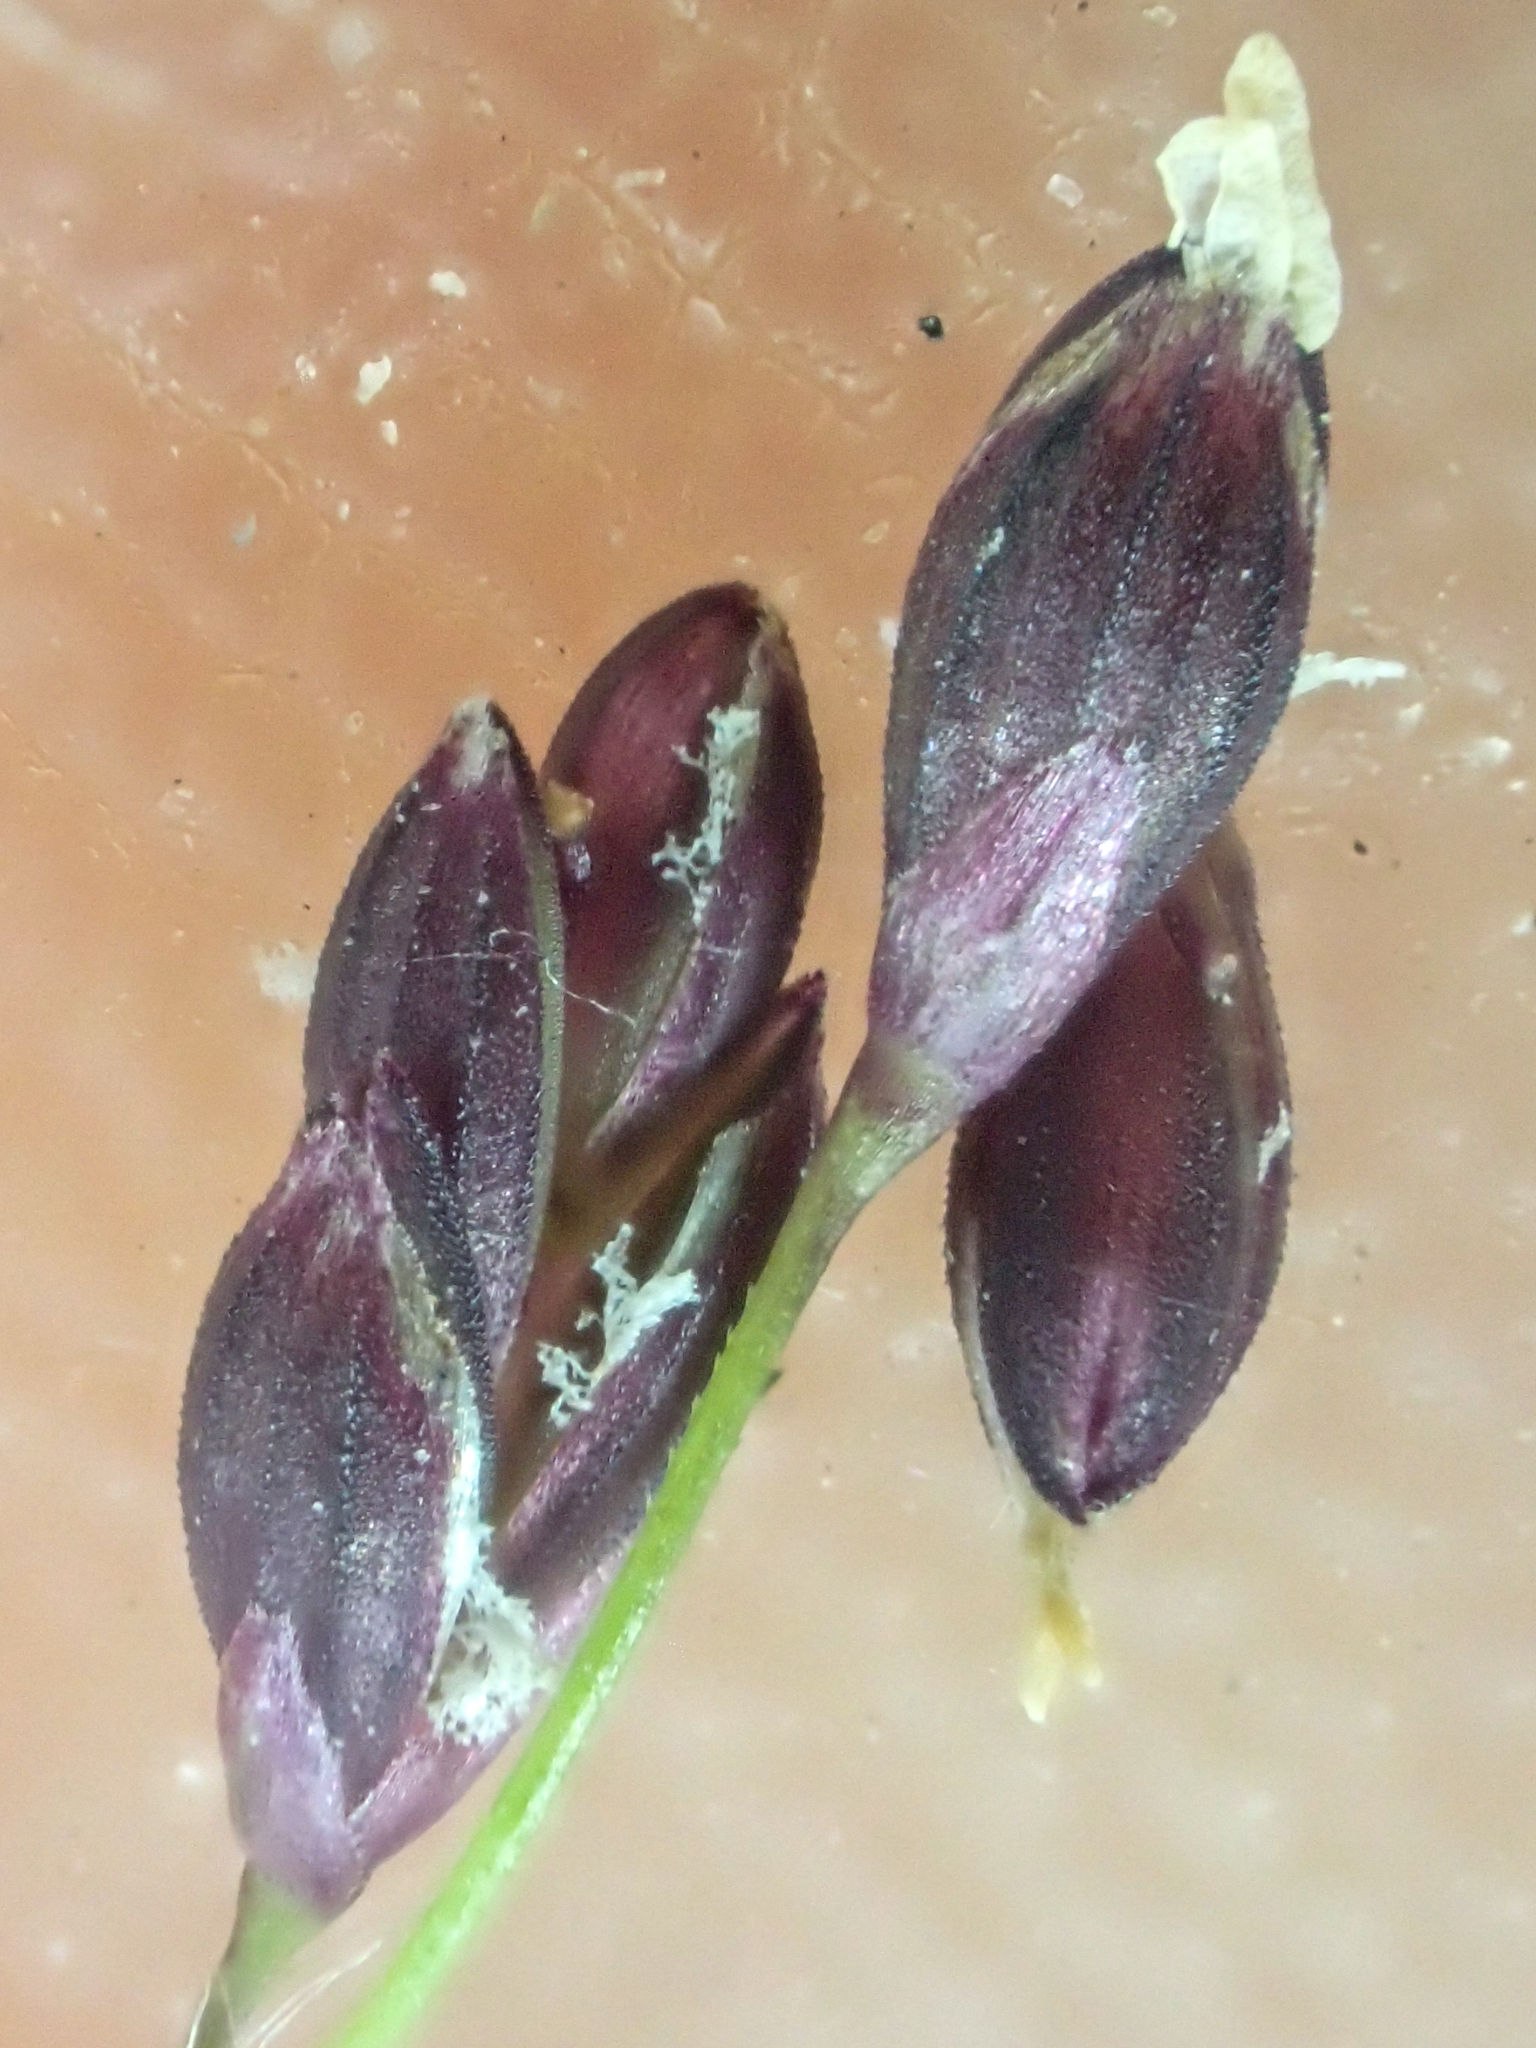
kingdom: Plantae
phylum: Tracheophyta
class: Liliopsida
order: Poales
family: Poaceae
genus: Torreyochloa
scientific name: Torreyochloa pallida
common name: Pale false mannagrass
